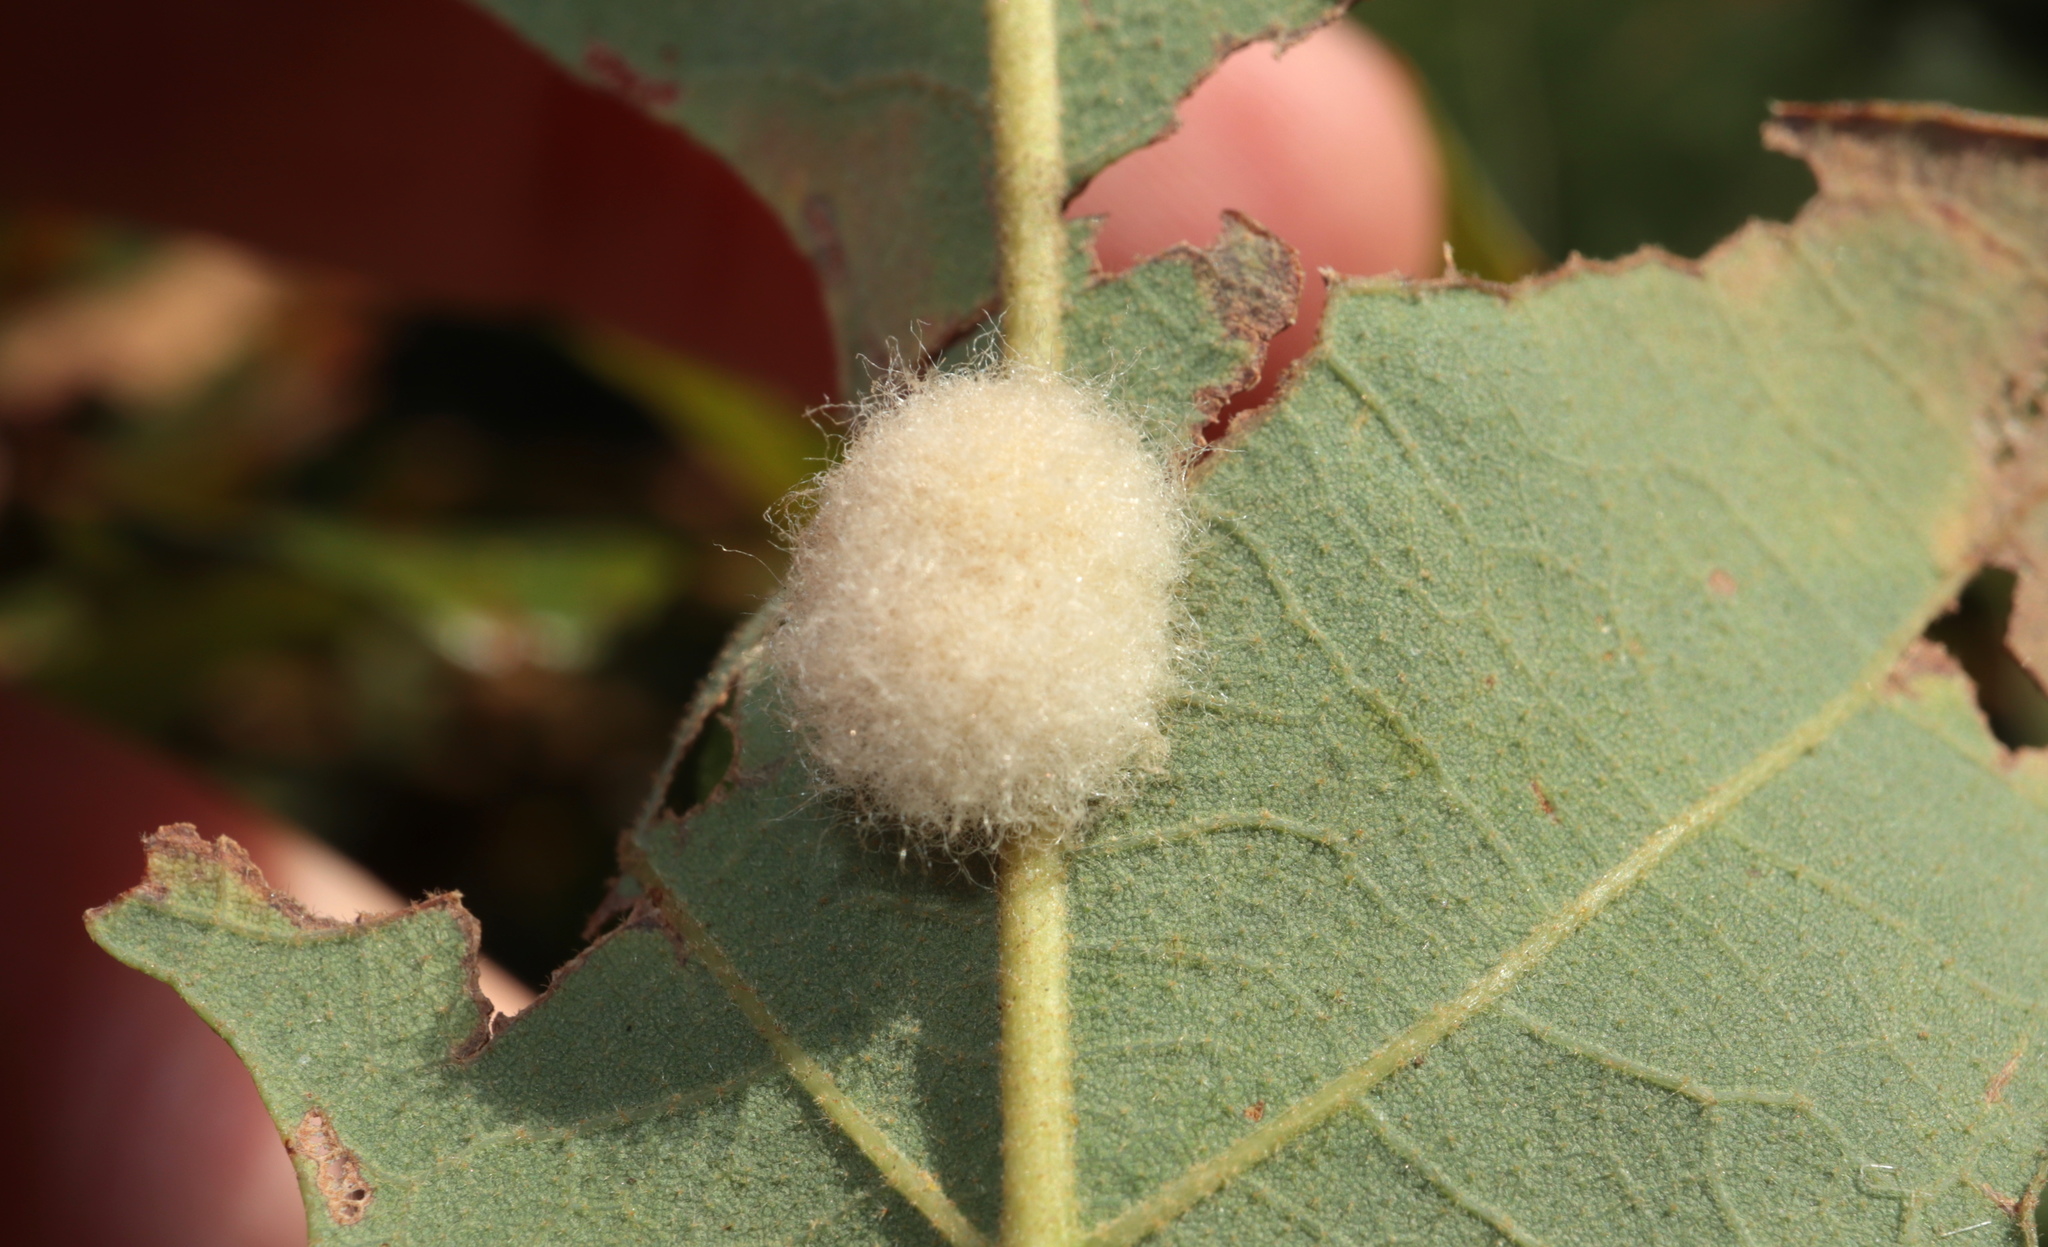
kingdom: Animalia
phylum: Arthropoda
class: Insecta
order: Hymenoptera
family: Cynipidae
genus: Andricus
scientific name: Andricus Druon pattoni
